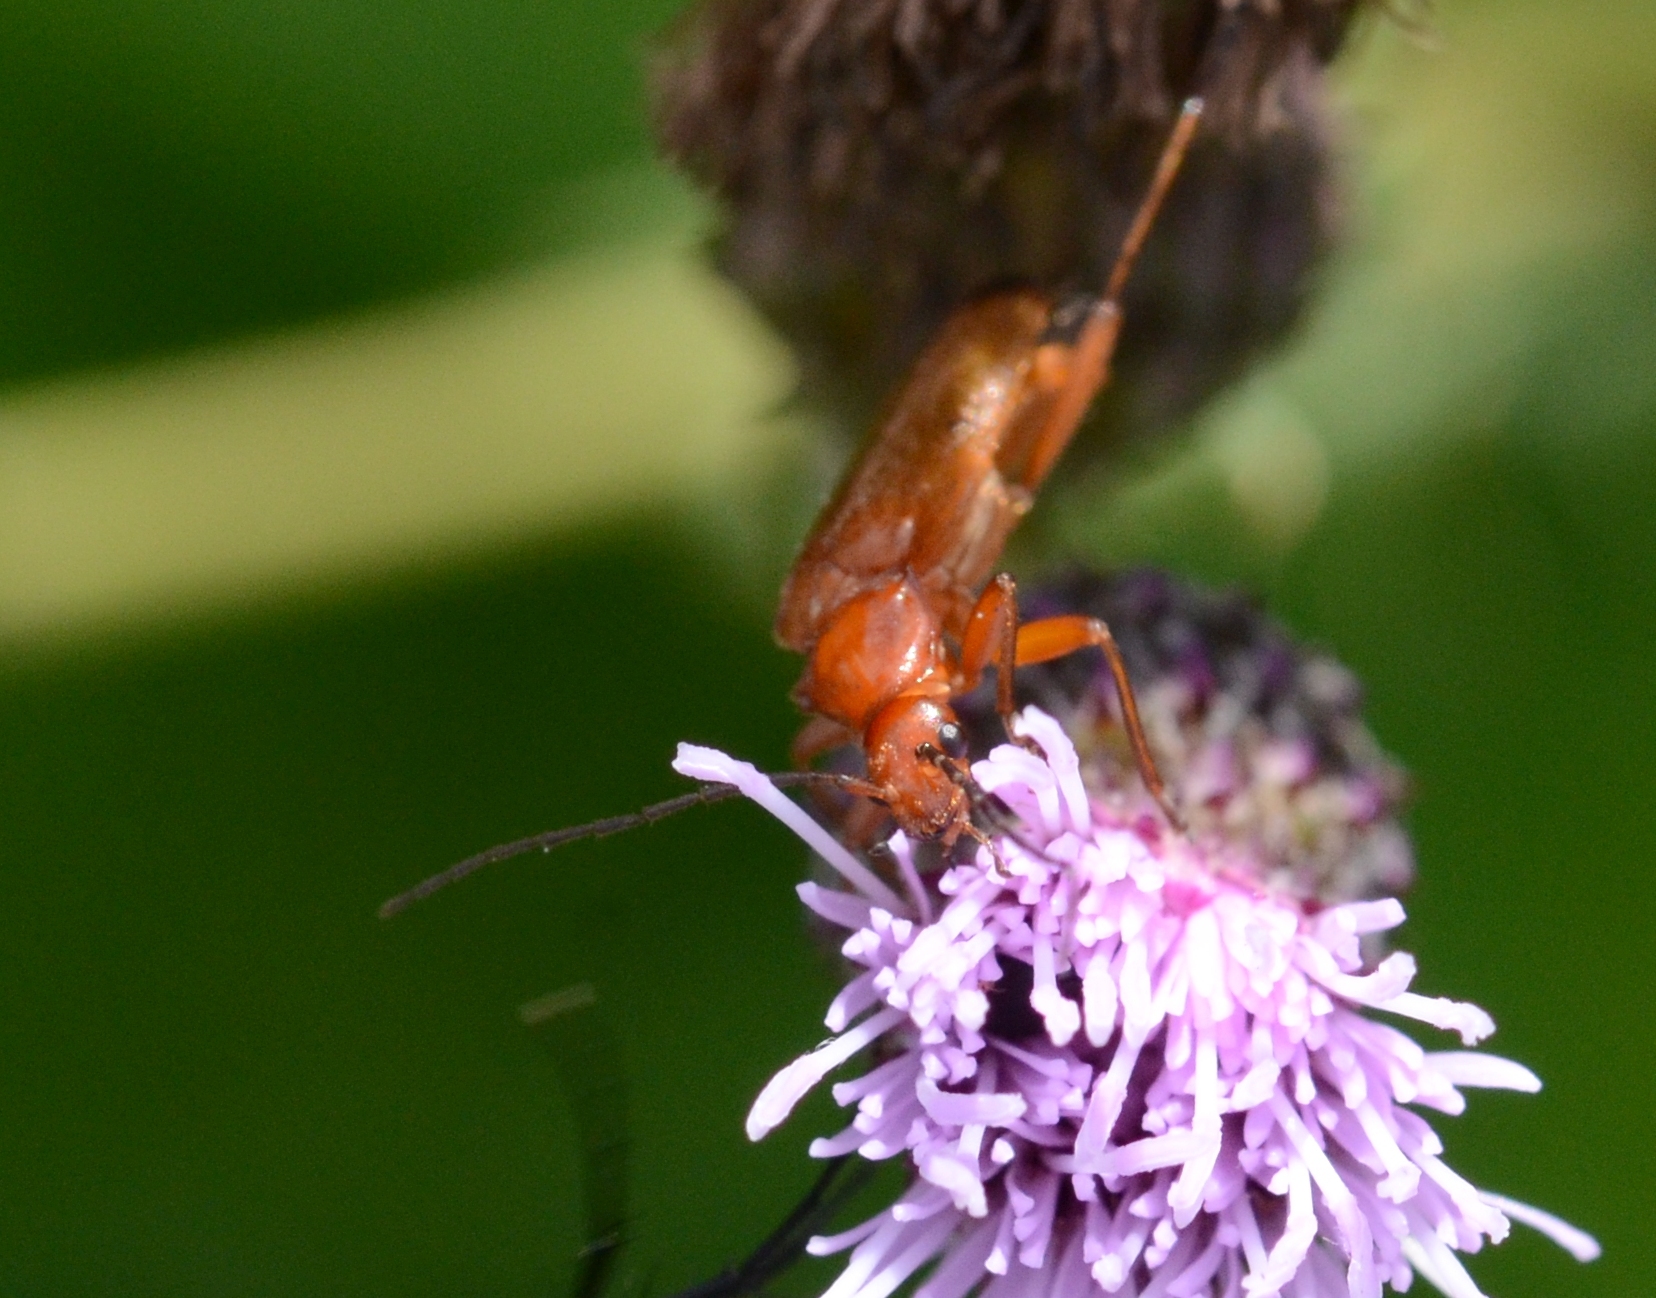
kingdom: Animalia
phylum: Arthropoda
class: Insecta
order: Coleoptera
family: Cantharidae
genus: Rhagonycha
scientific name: Rhagonycha fulva
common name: Common red soldier beetle
